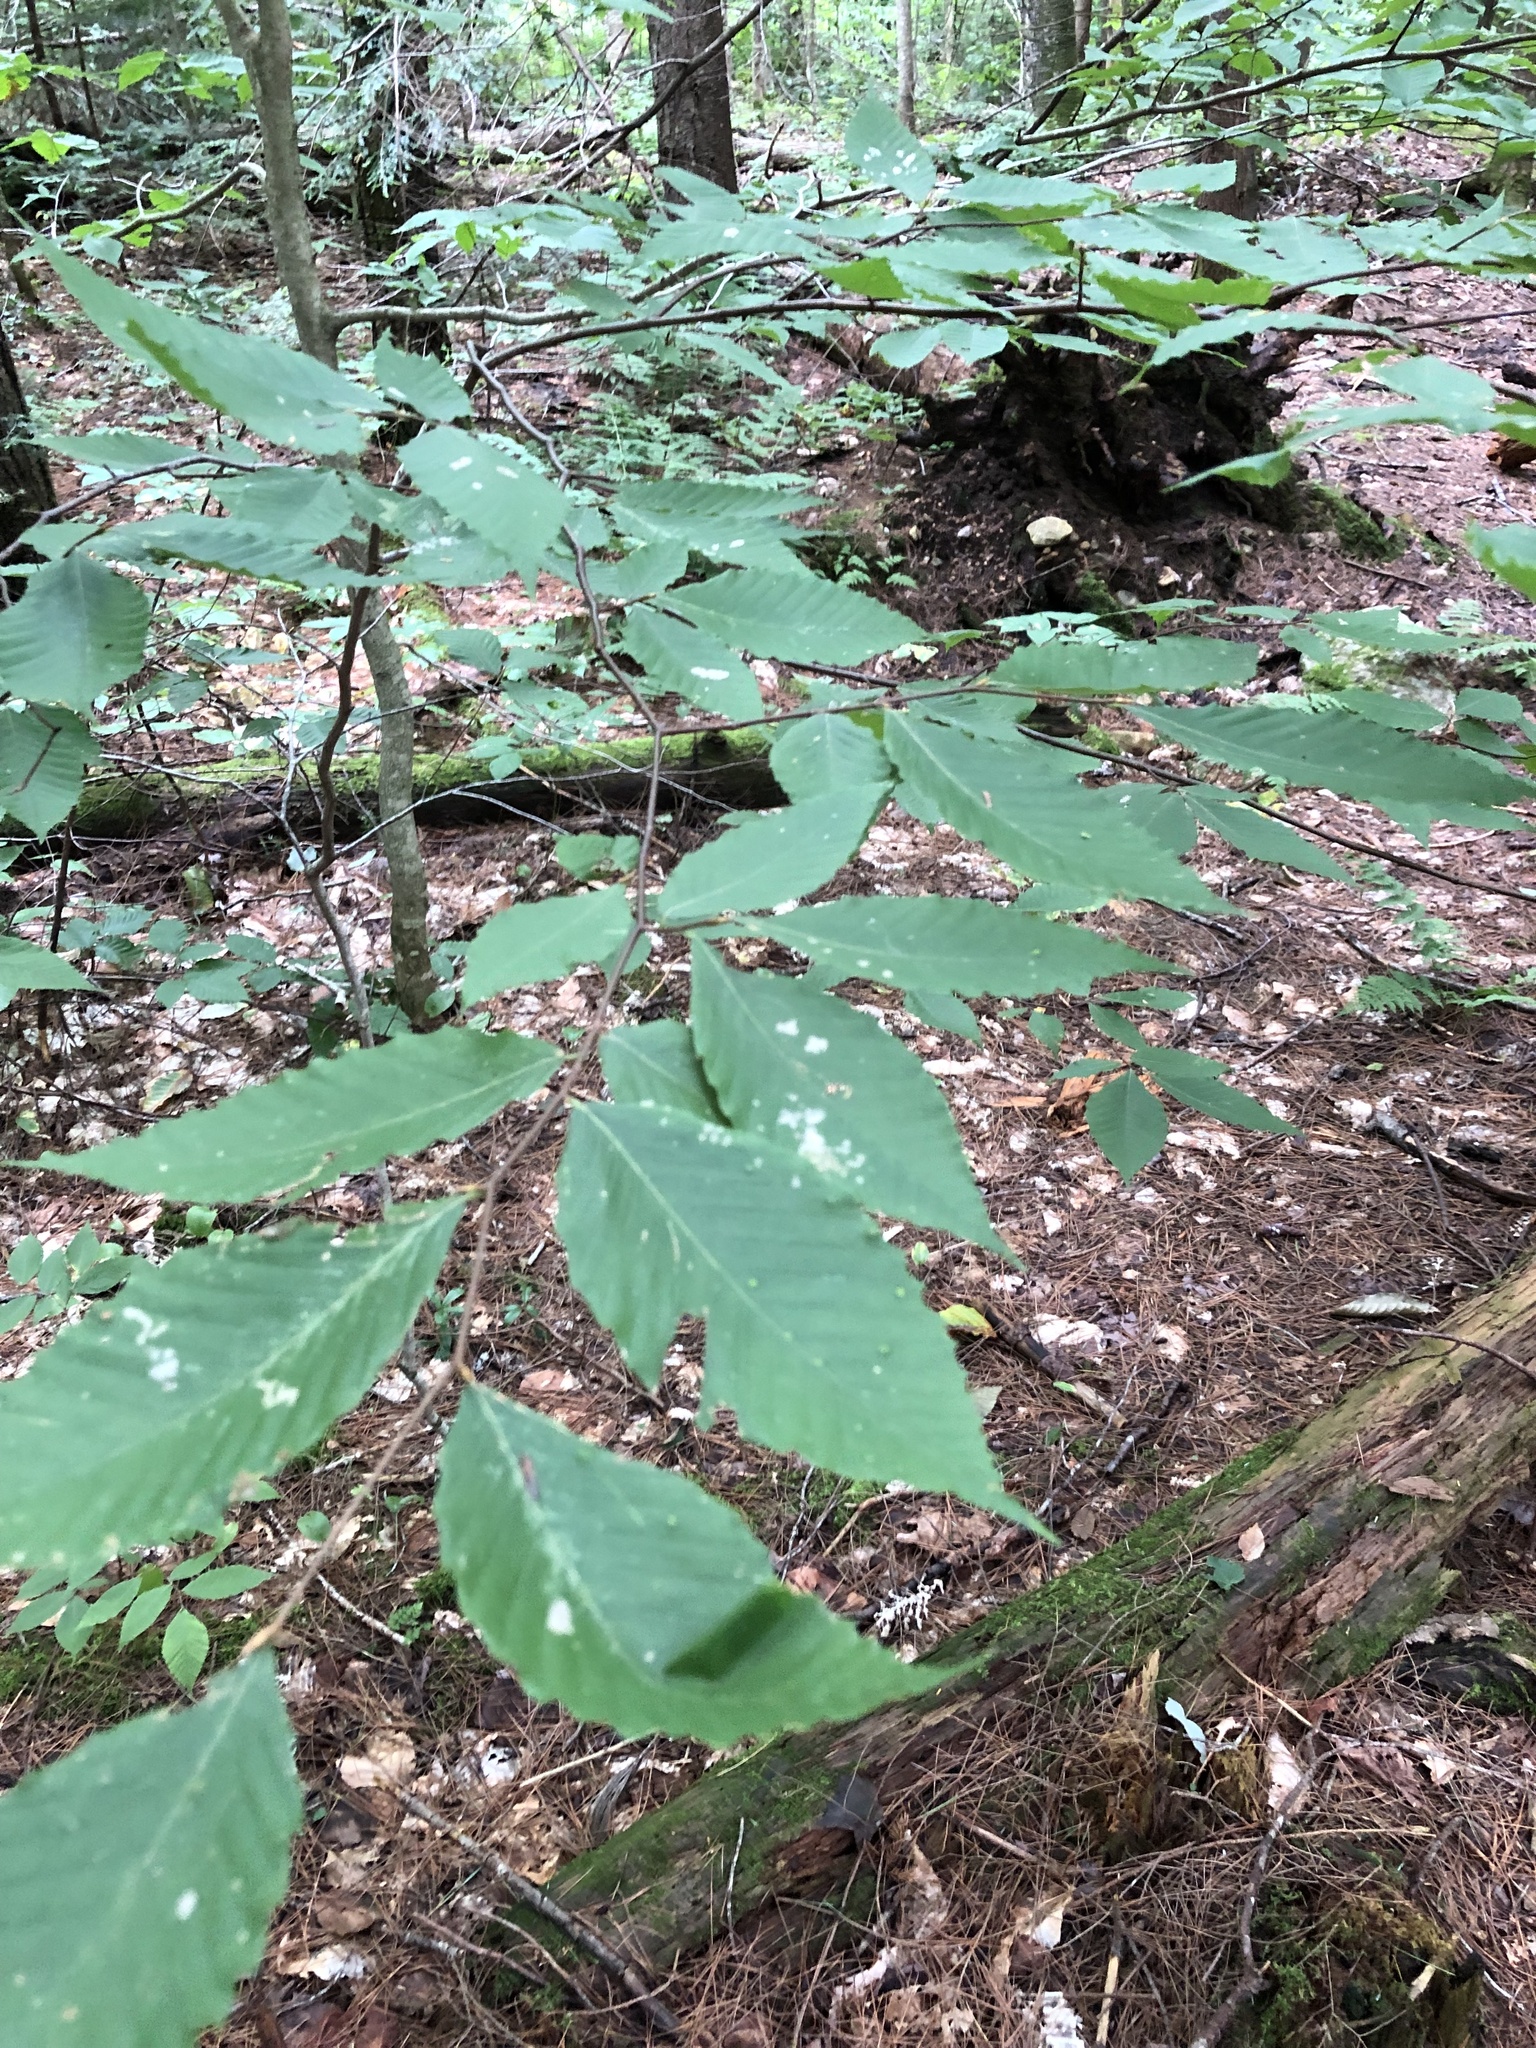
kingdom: Plantae
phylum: Tracheophyta
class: Magnoliopsida
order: Fagales
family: Fagaceae
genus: Fagus
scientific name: Fagus grandifolia
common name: American beech
